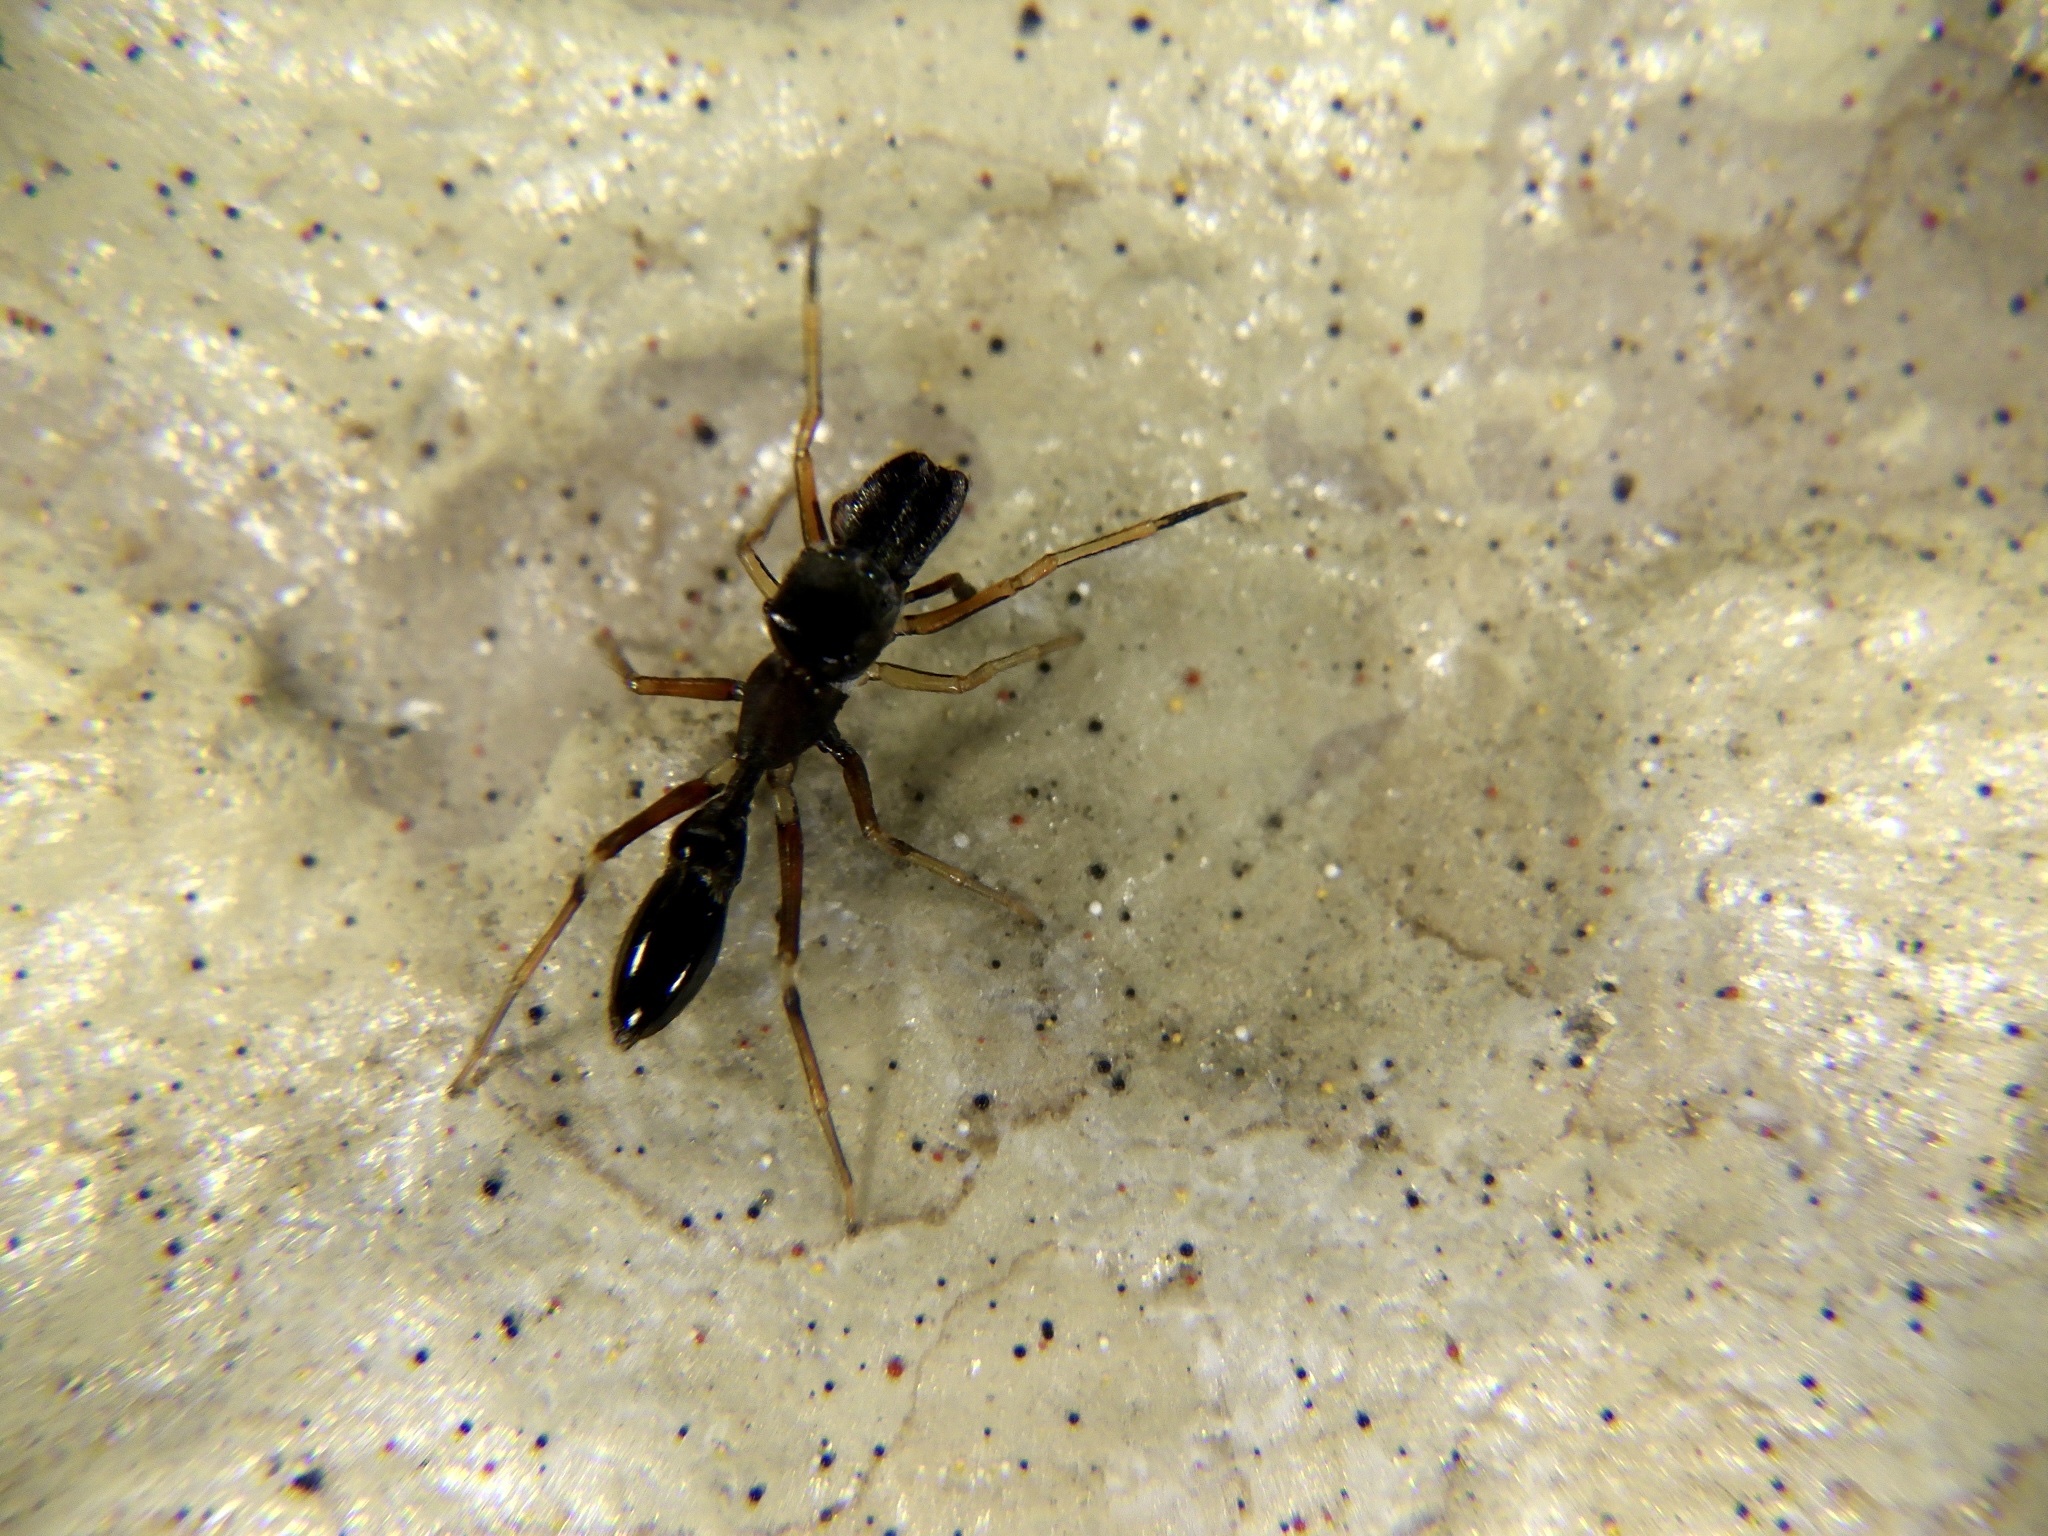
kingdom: Animalia
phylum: Arthropoda
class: Arachnida
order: Araneae
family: Salticidae
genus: Myrmarachne
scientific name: Myrmarachne elongata
